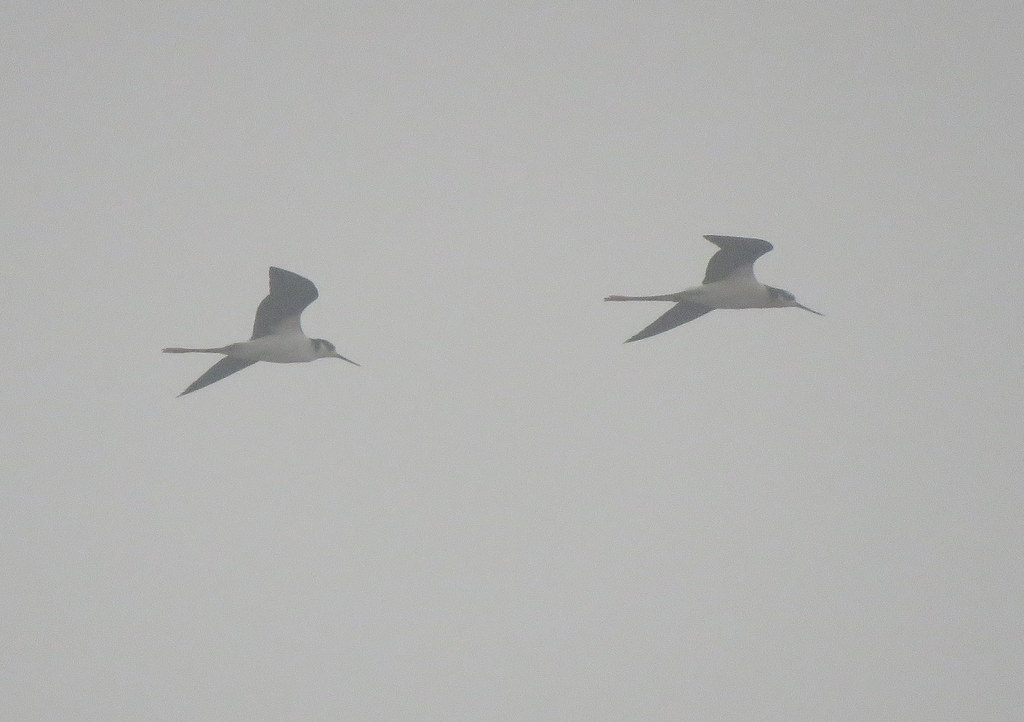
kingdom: Animalia
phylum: Chordata
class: Aves
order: Charadriiformes
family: Recurvirostridae
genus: Himantopus
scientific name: Himantopus mexicanus
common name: Black-necked stilt
